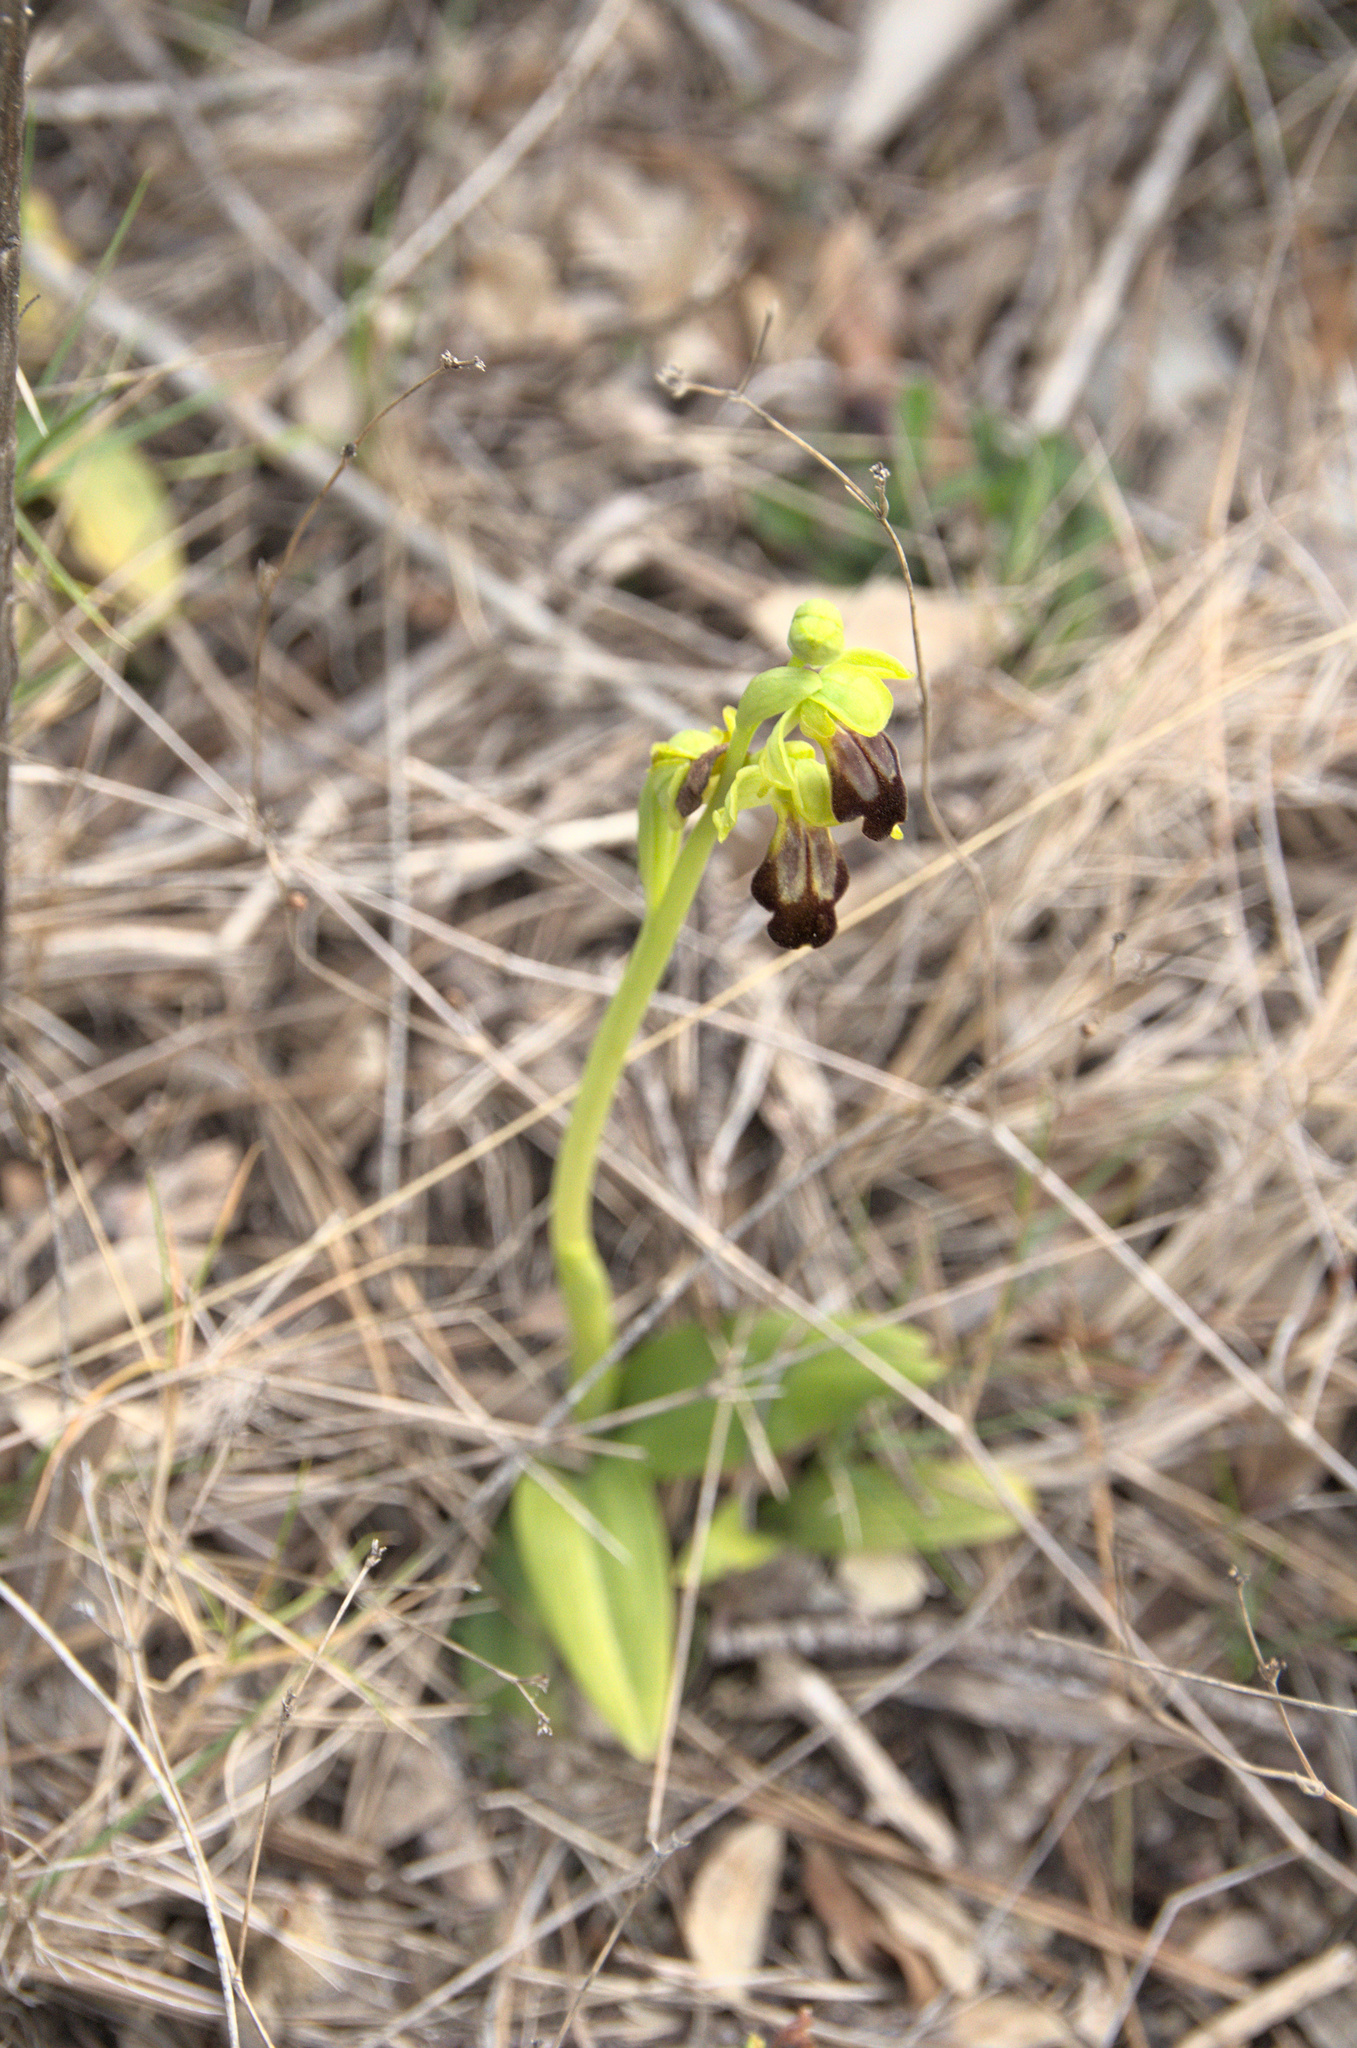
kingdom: Plantae
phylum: Tracheophyta
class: Liliopsida
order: Asparagales
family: Orchidaceae
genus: Ophrys
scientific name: Ophrys fusca
